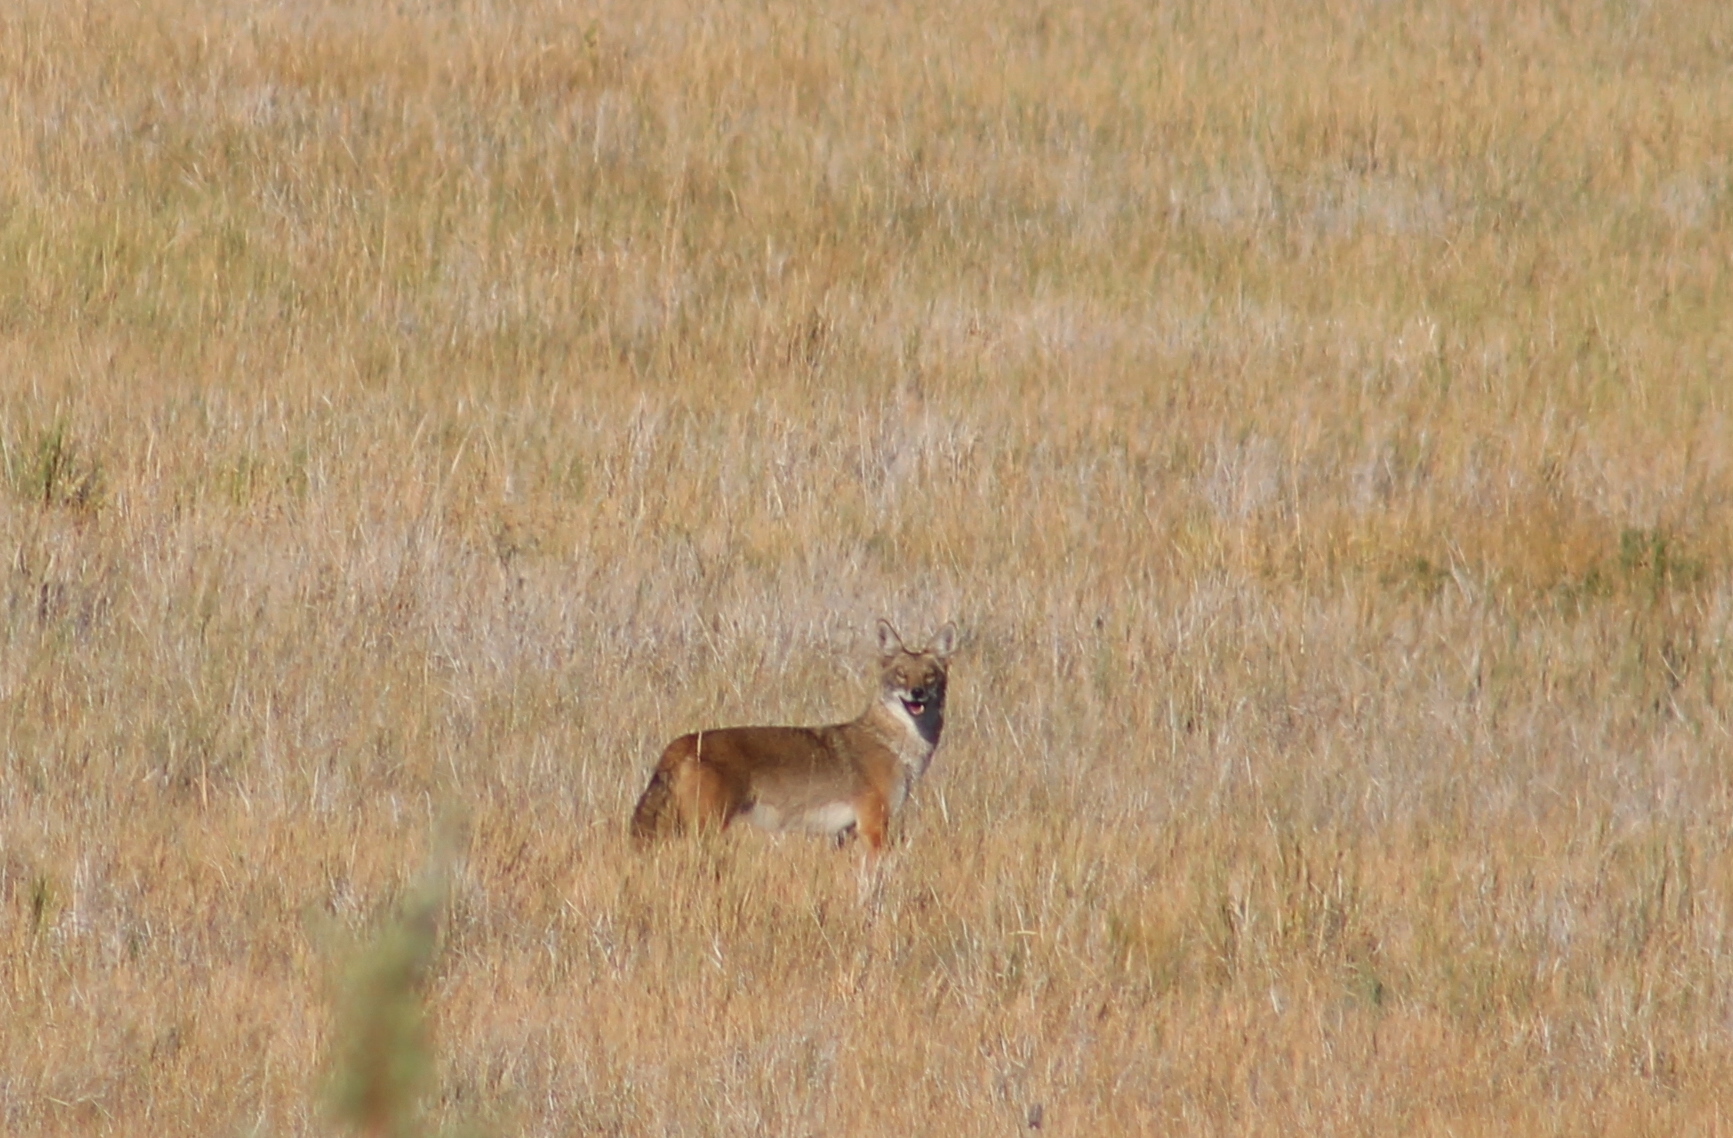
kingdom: Animalia
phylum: Chordata
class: Mammalia
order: Carnivora
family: Canidae
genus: Canis
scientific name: Canis latrans
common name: Coyote
